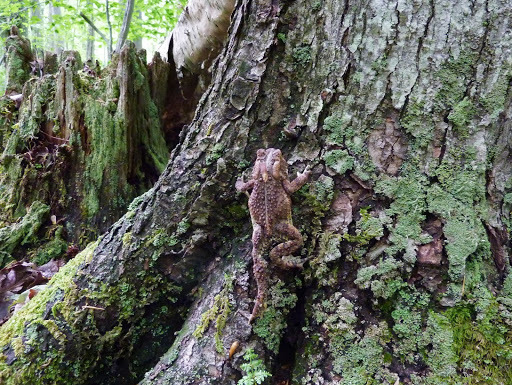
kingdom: Animalia
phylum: Chordata
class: Amphibia
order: Anura
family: Bufonidae
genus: Anaxyrus
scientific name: Anaxyrus americanus
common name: American toad
